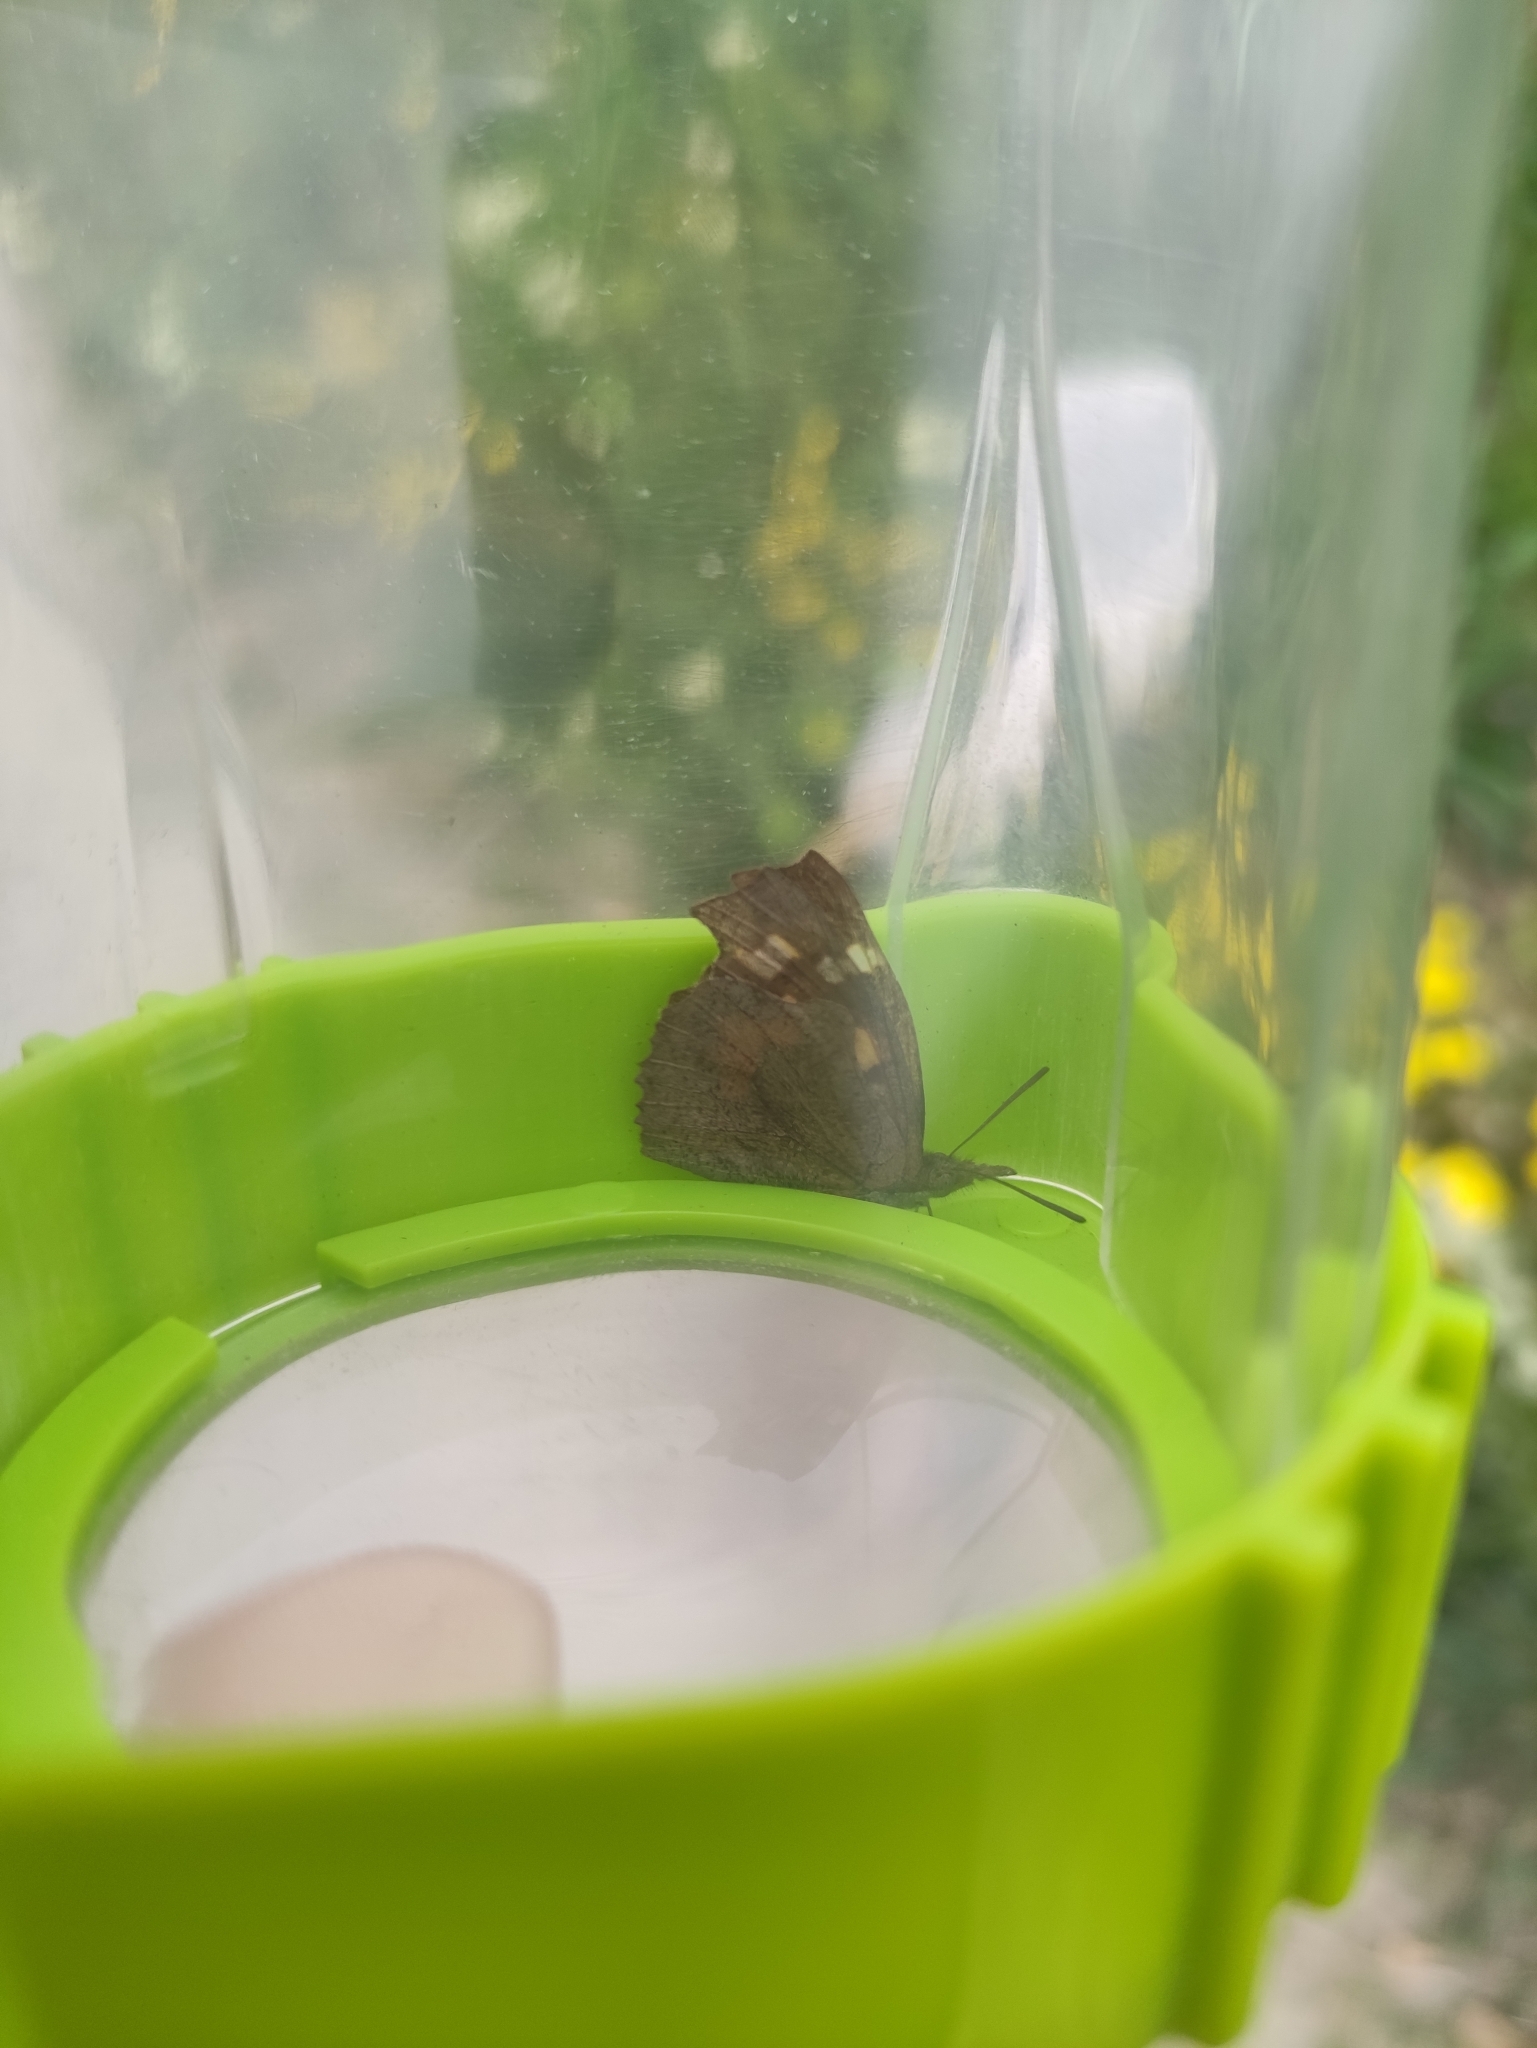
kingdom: Animalia
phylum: Arthropoda
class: Insecta
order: Lepidoptera
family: Nymphalidae
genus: Libythea
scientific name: Libythea celtis
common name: Nettle-tree butterfly
